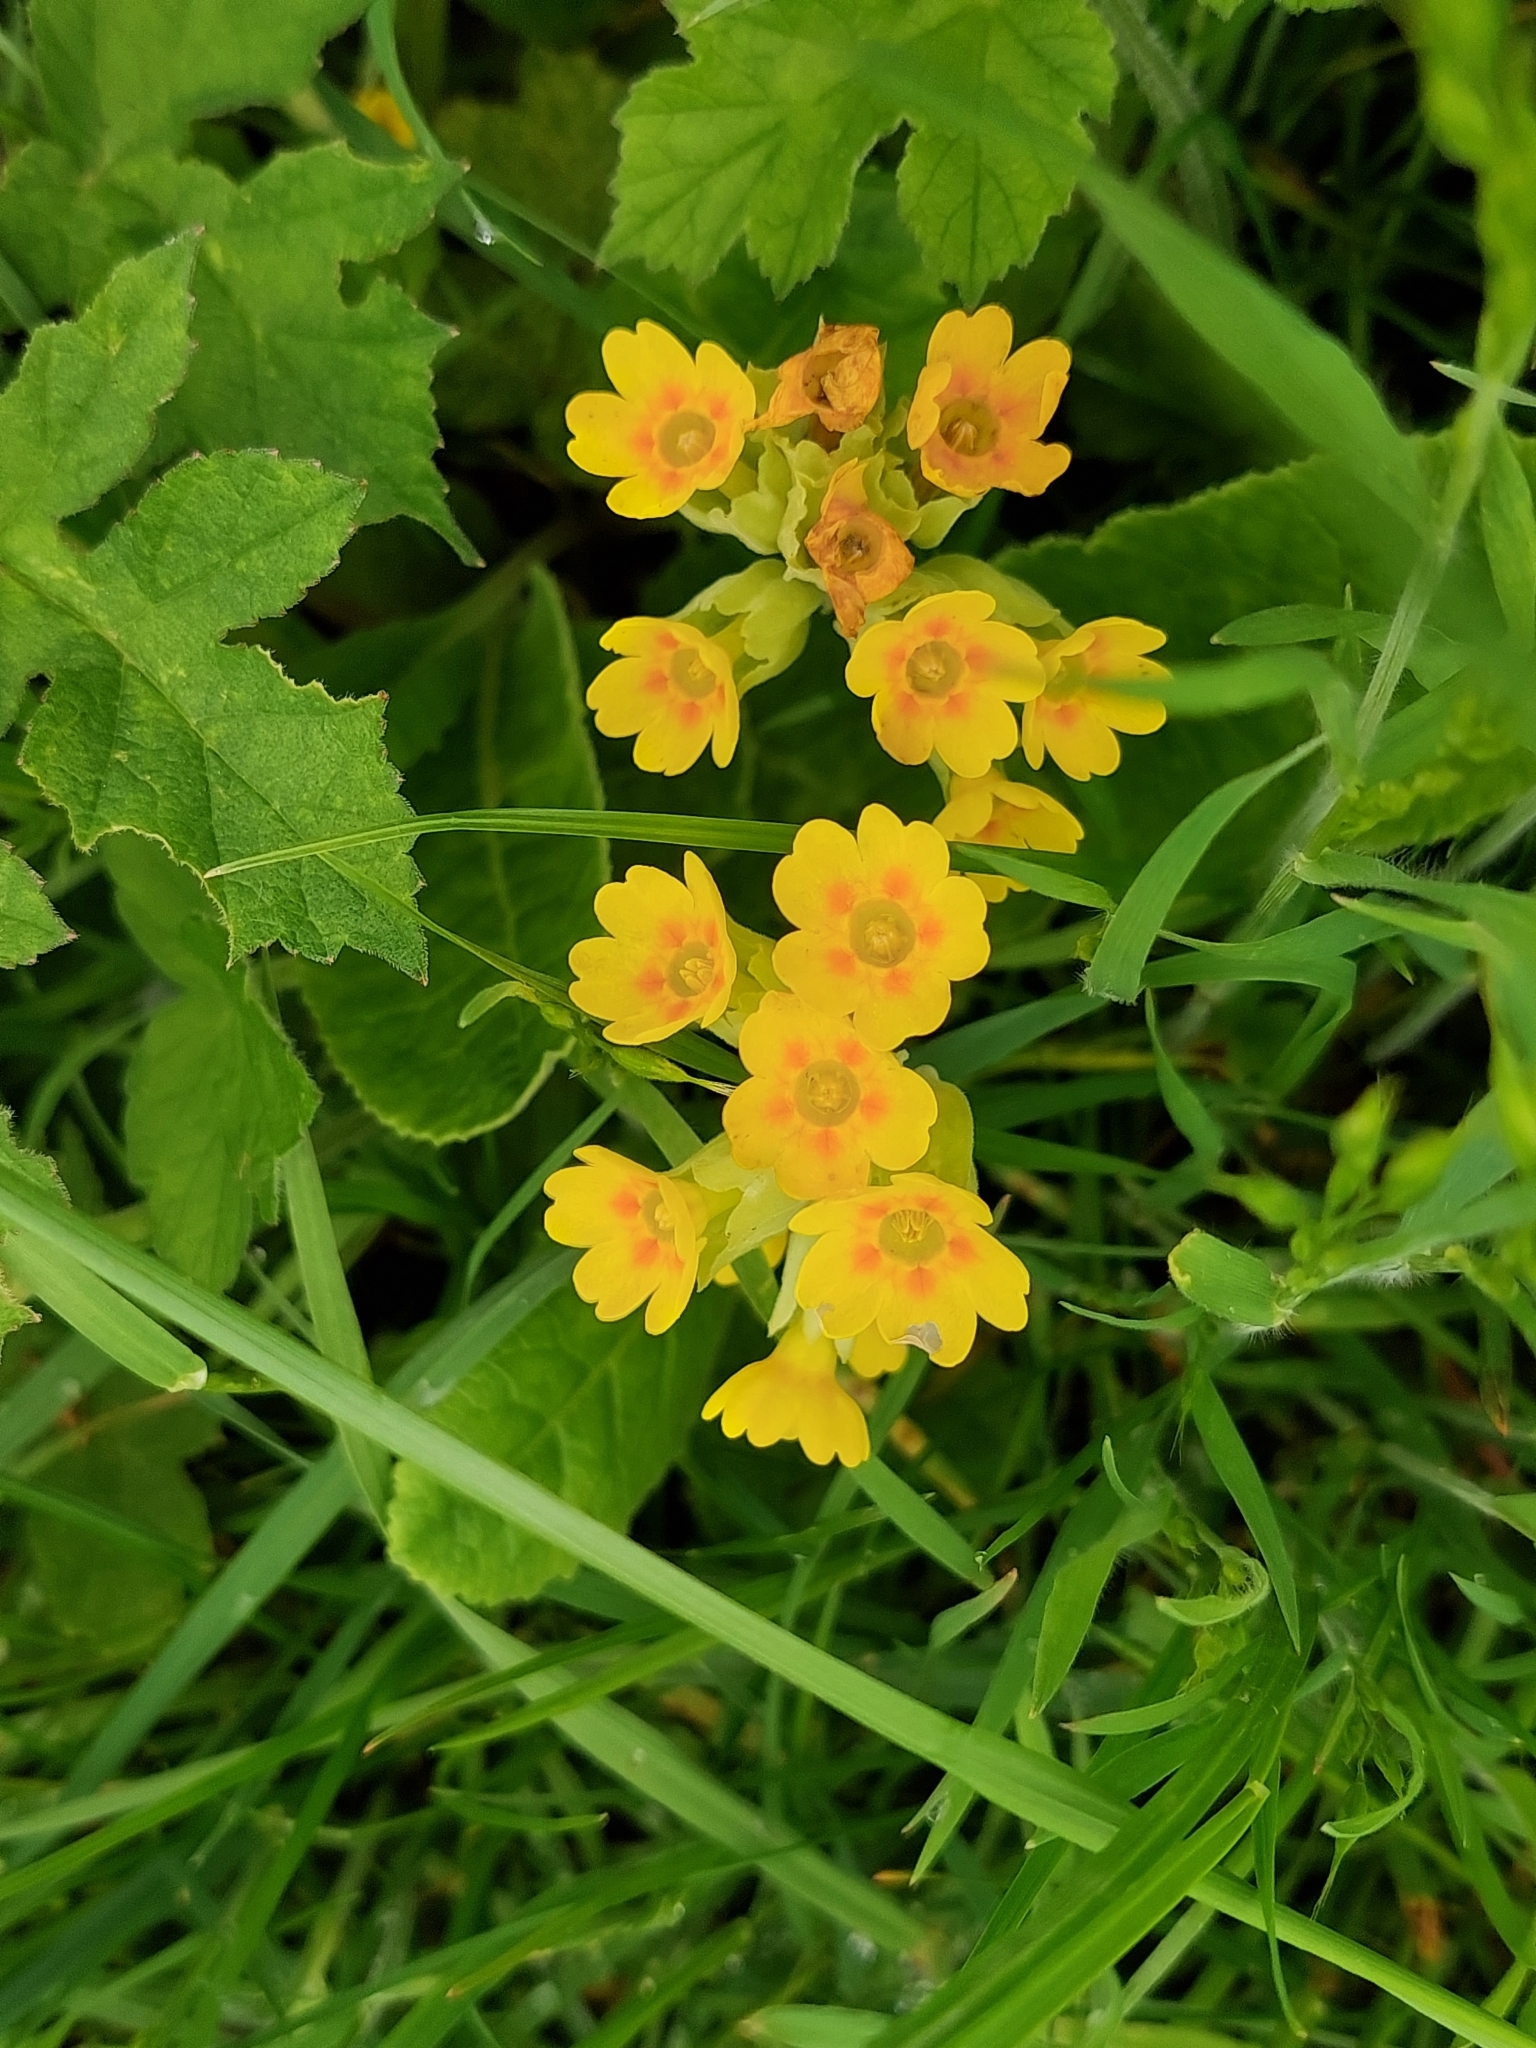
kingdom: Plantae
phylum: Tracheophyta
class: Magnoliopsida
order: Ericales
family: Primulaceae
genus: Primula
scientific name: Primula veris
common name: Cowslip
